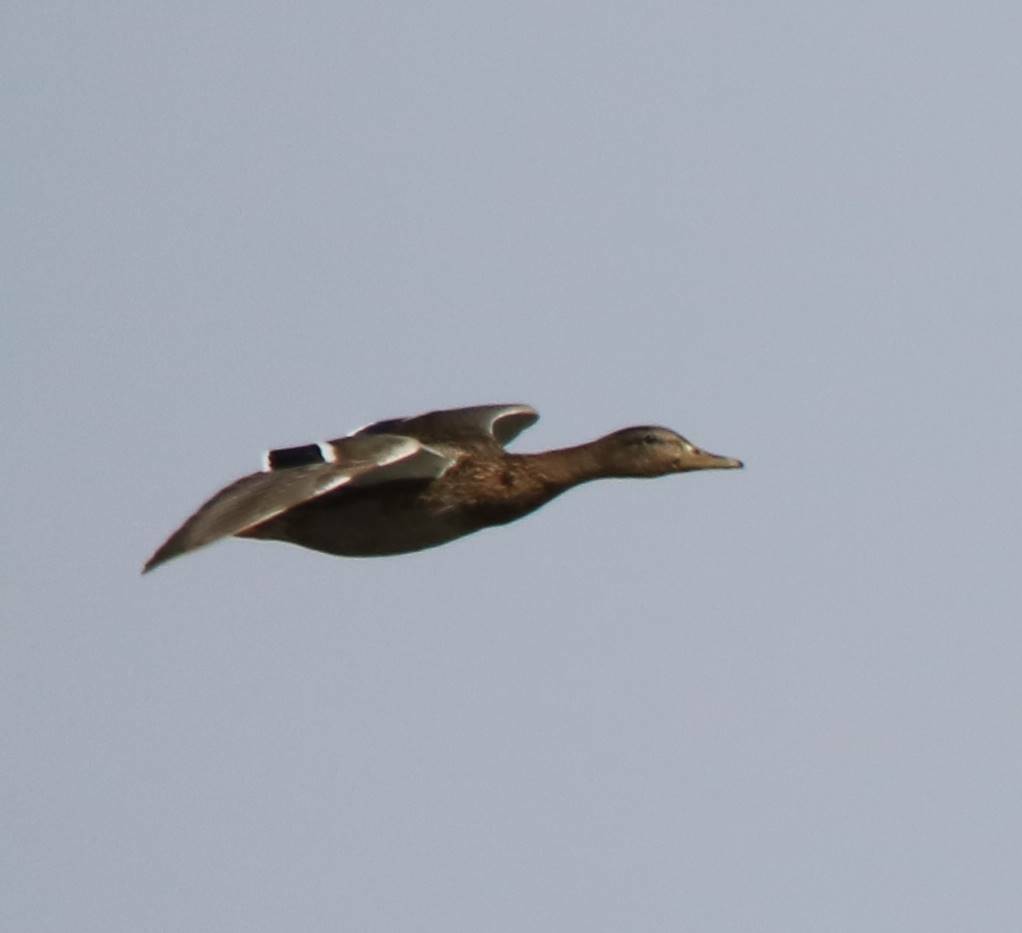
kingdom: Animalia
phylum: Chordata
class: Aves
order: Anseriformes
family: Anatidae
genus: Anas
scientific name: Anas platyrhynchos
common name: Mallard
